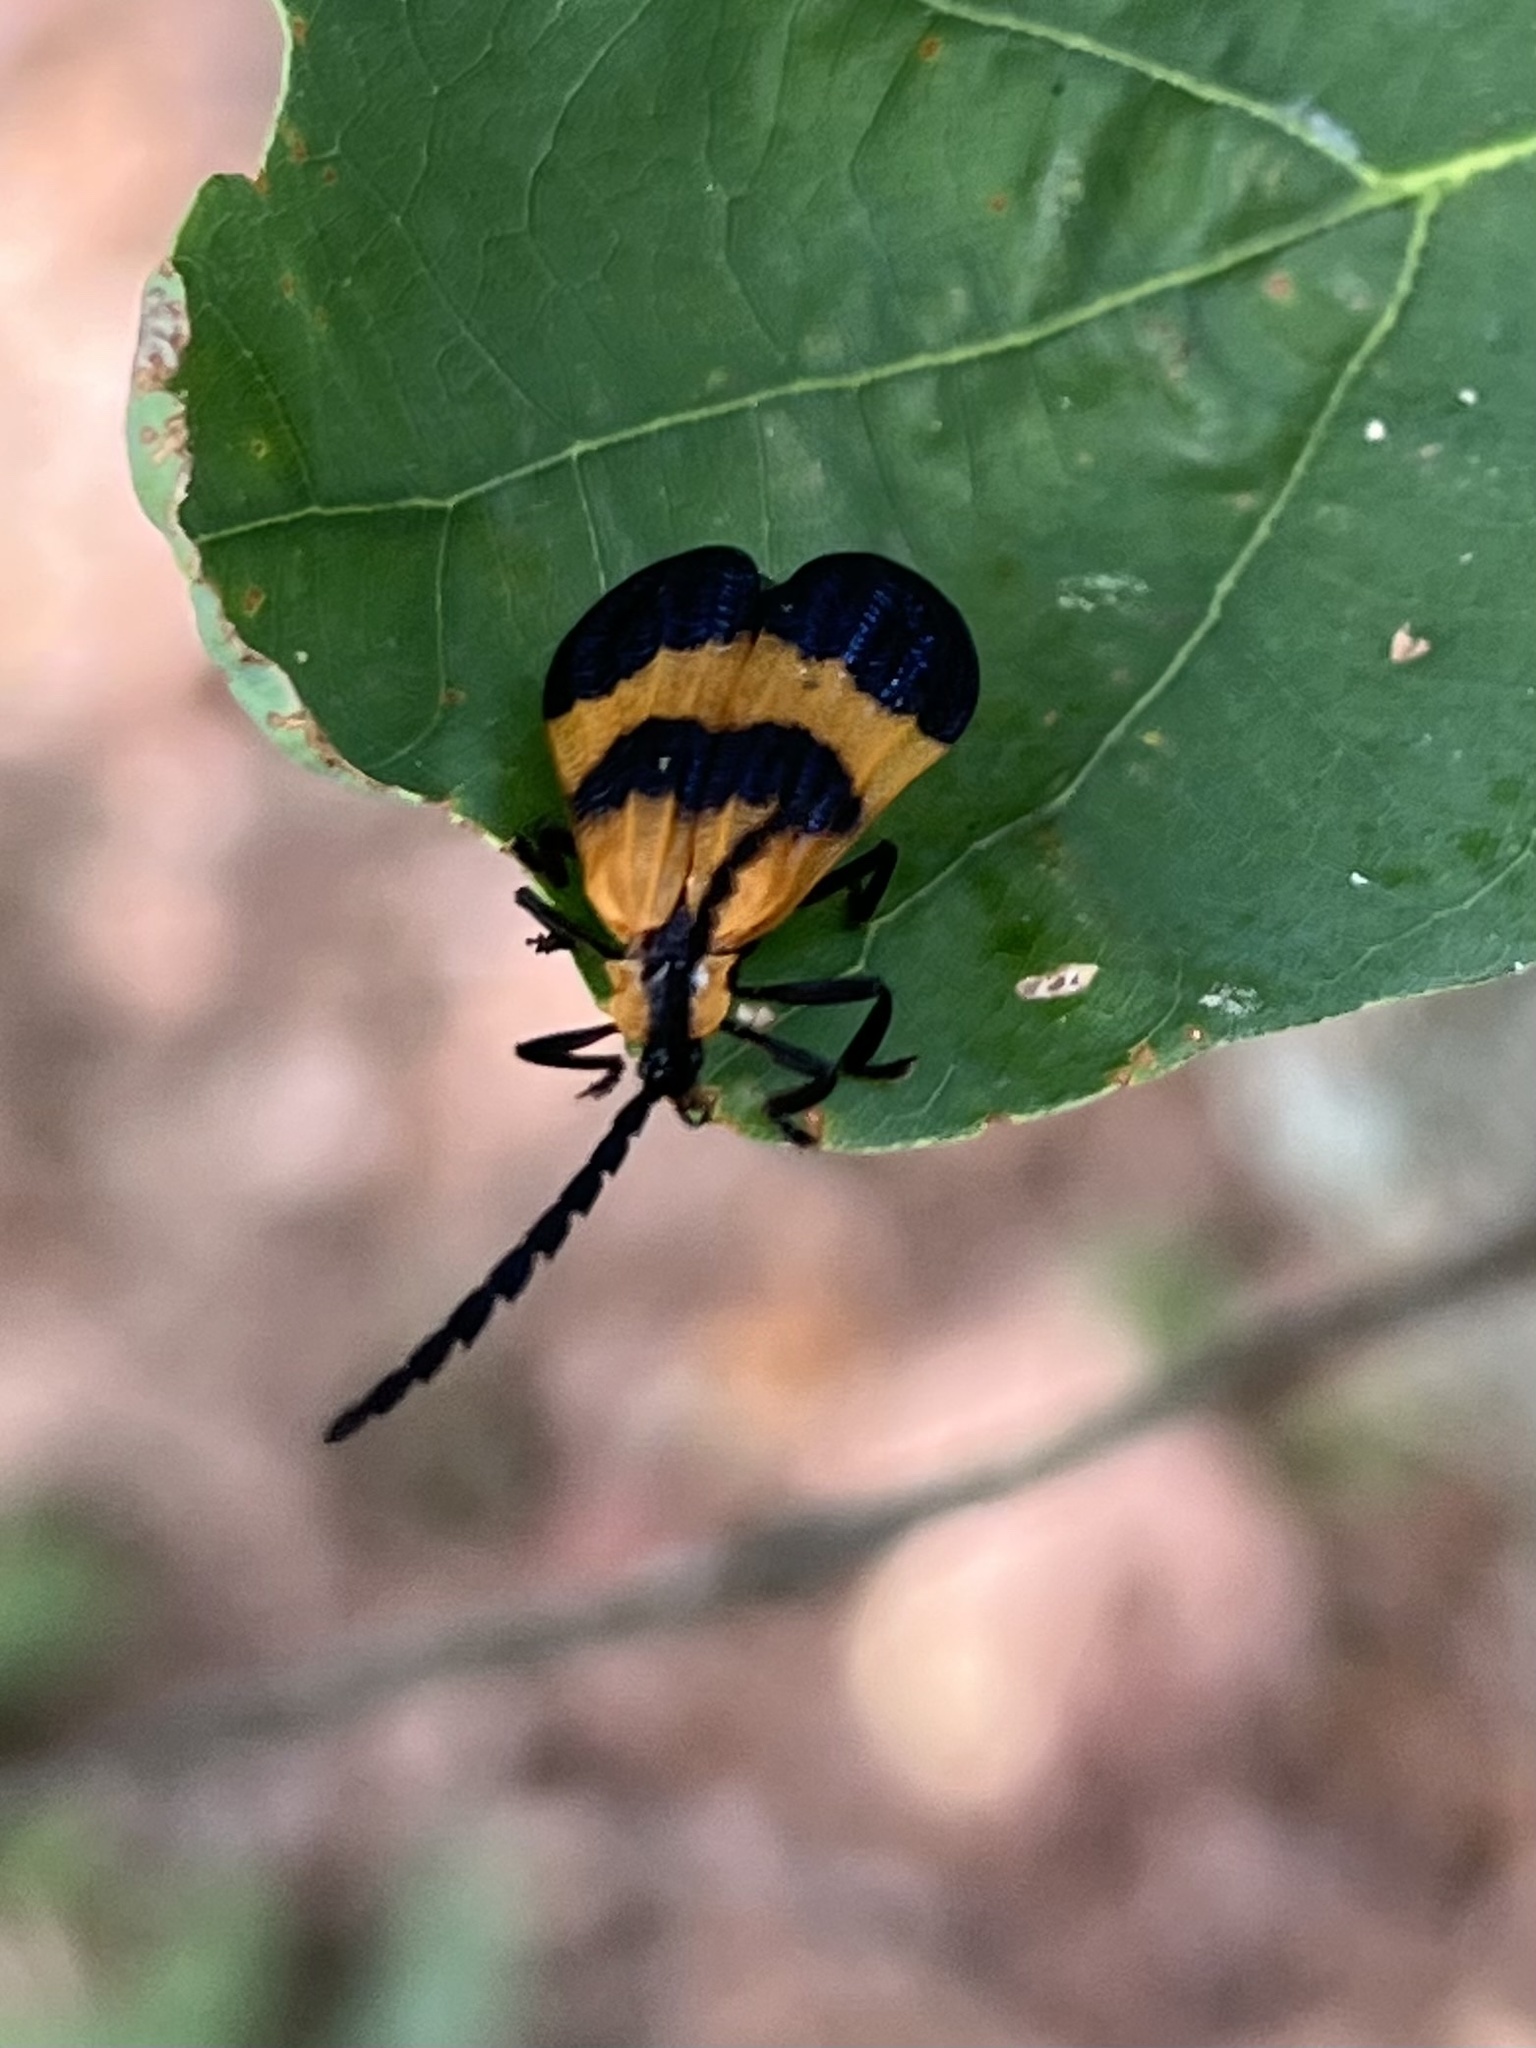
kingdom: Animalia
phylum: Arthropoda
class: Insecta
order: Coleoptera
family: Lycidae
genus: Calopteron
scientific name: Calopteron terminale
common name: End band net-winged beetle
